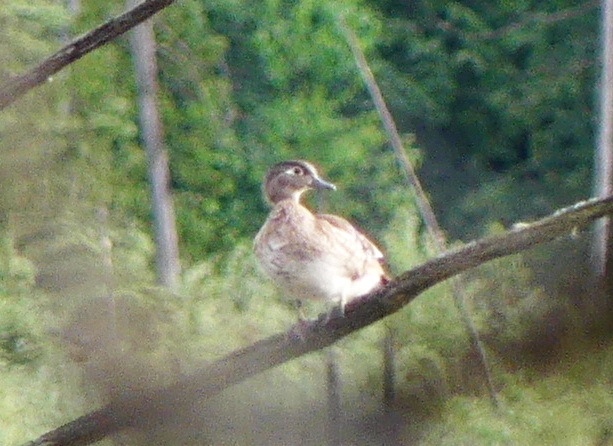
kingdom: Animalia
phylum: Chordata
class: Aves
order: Anseriformes
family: Anatidae
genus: Aix
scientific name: Aix sponsa
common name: Wood duck
